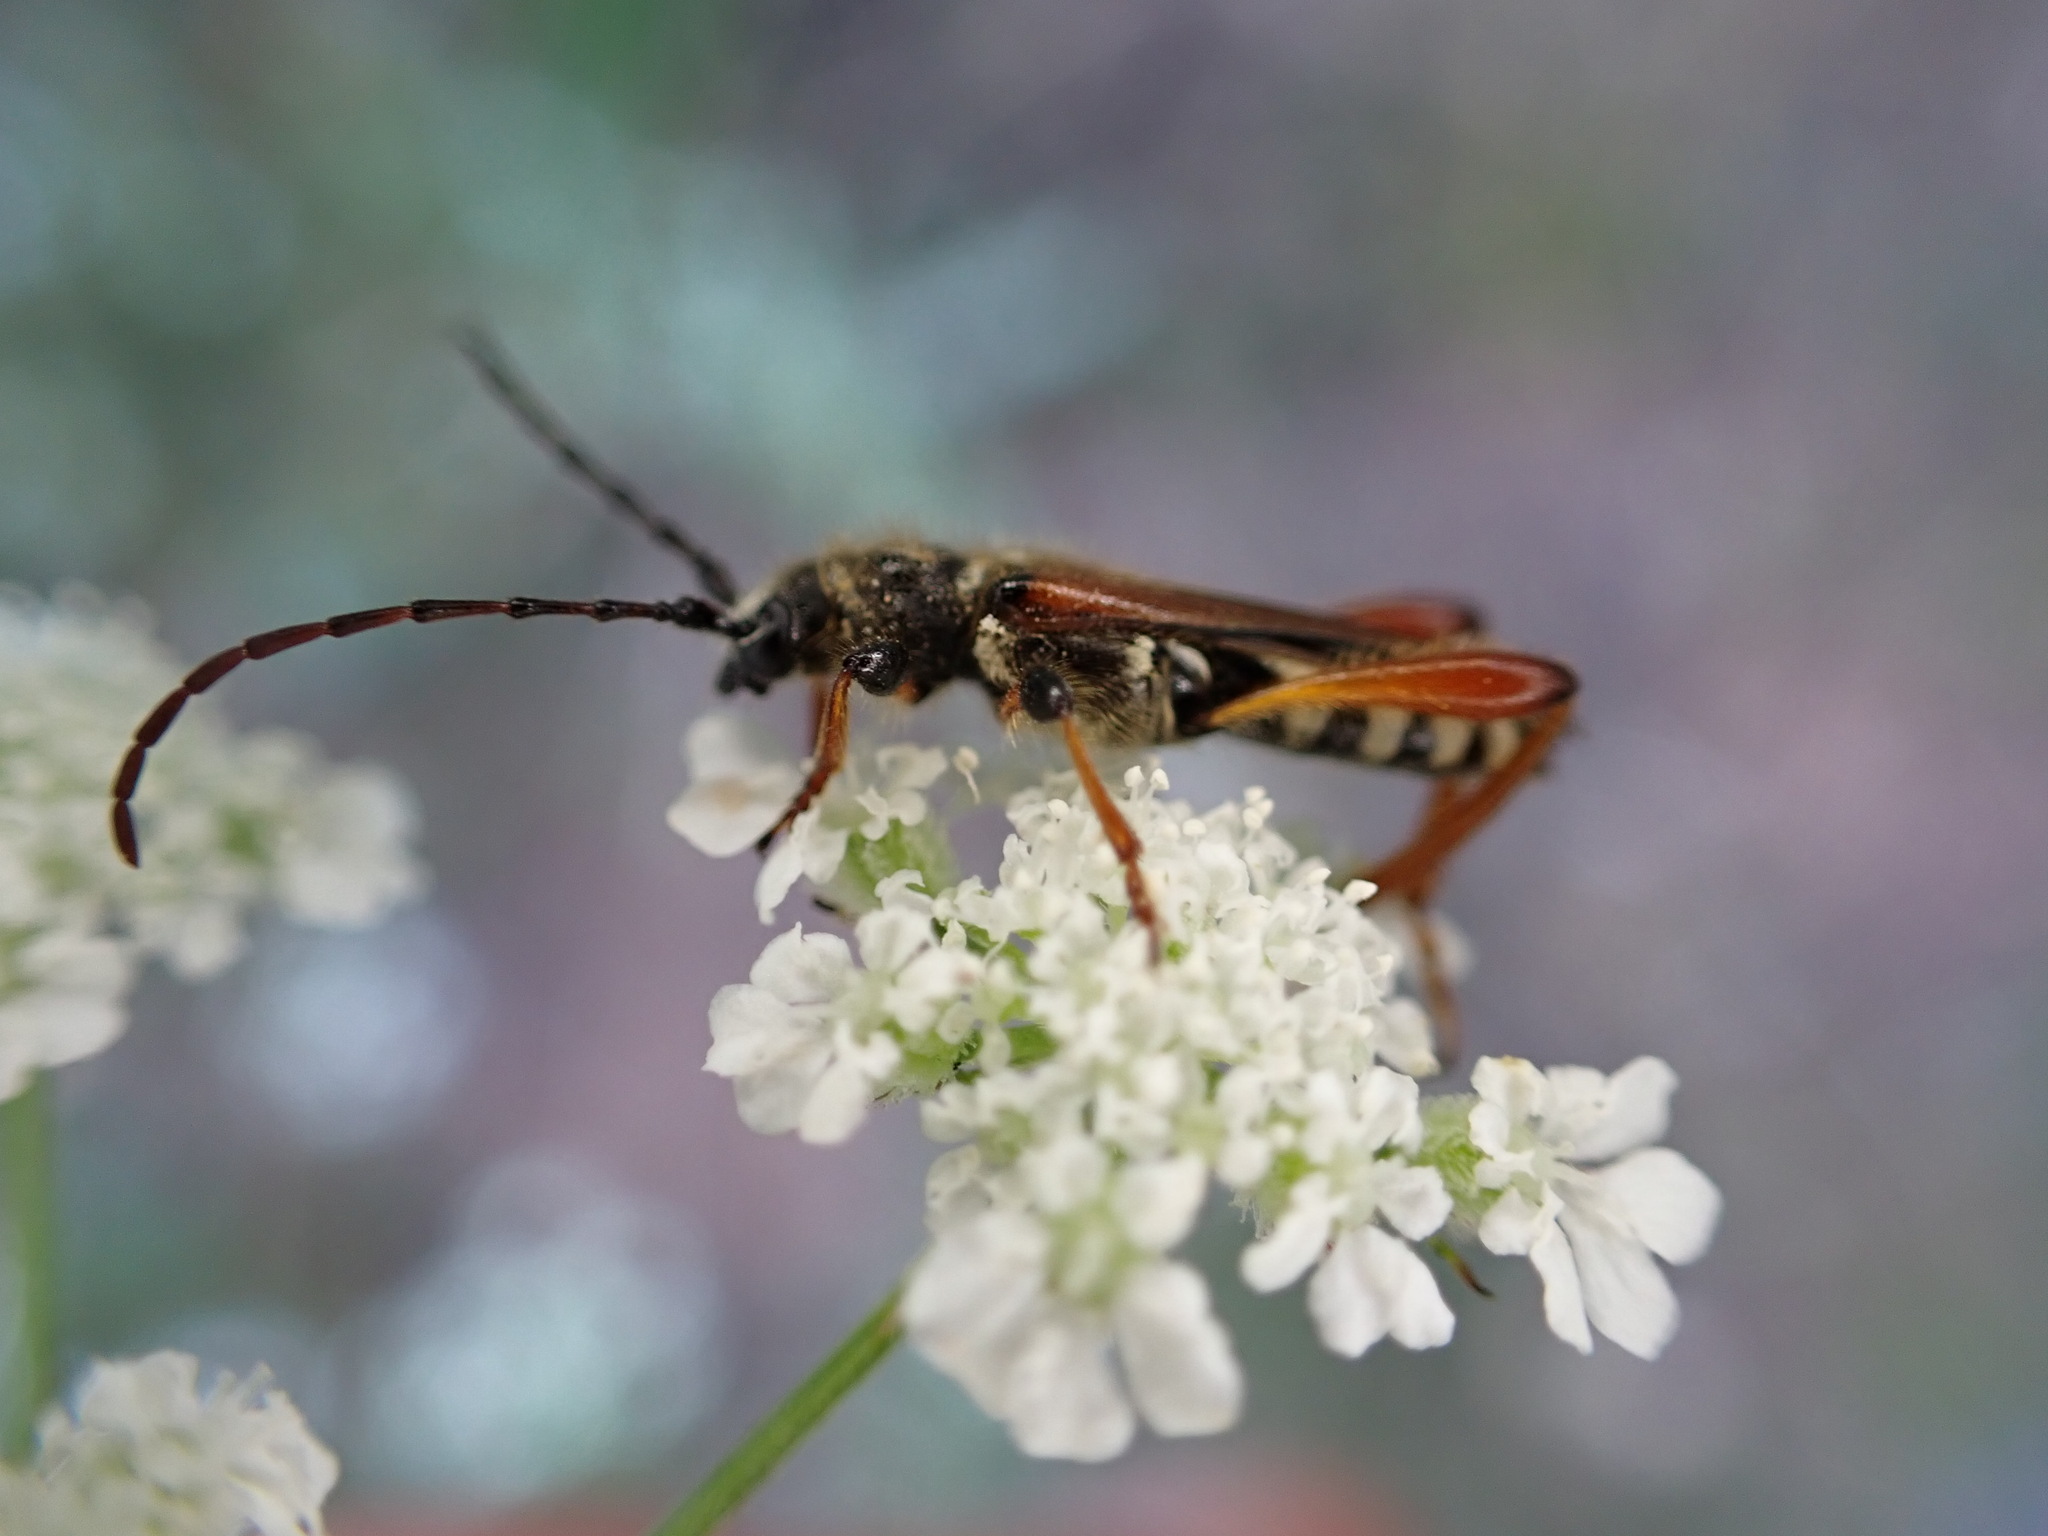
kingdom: Animalia
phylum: Arthropoda
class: Insecta
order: Coleoptera
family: Cerambycidae
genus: Stenopterus
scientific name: Stenopterus rufus
